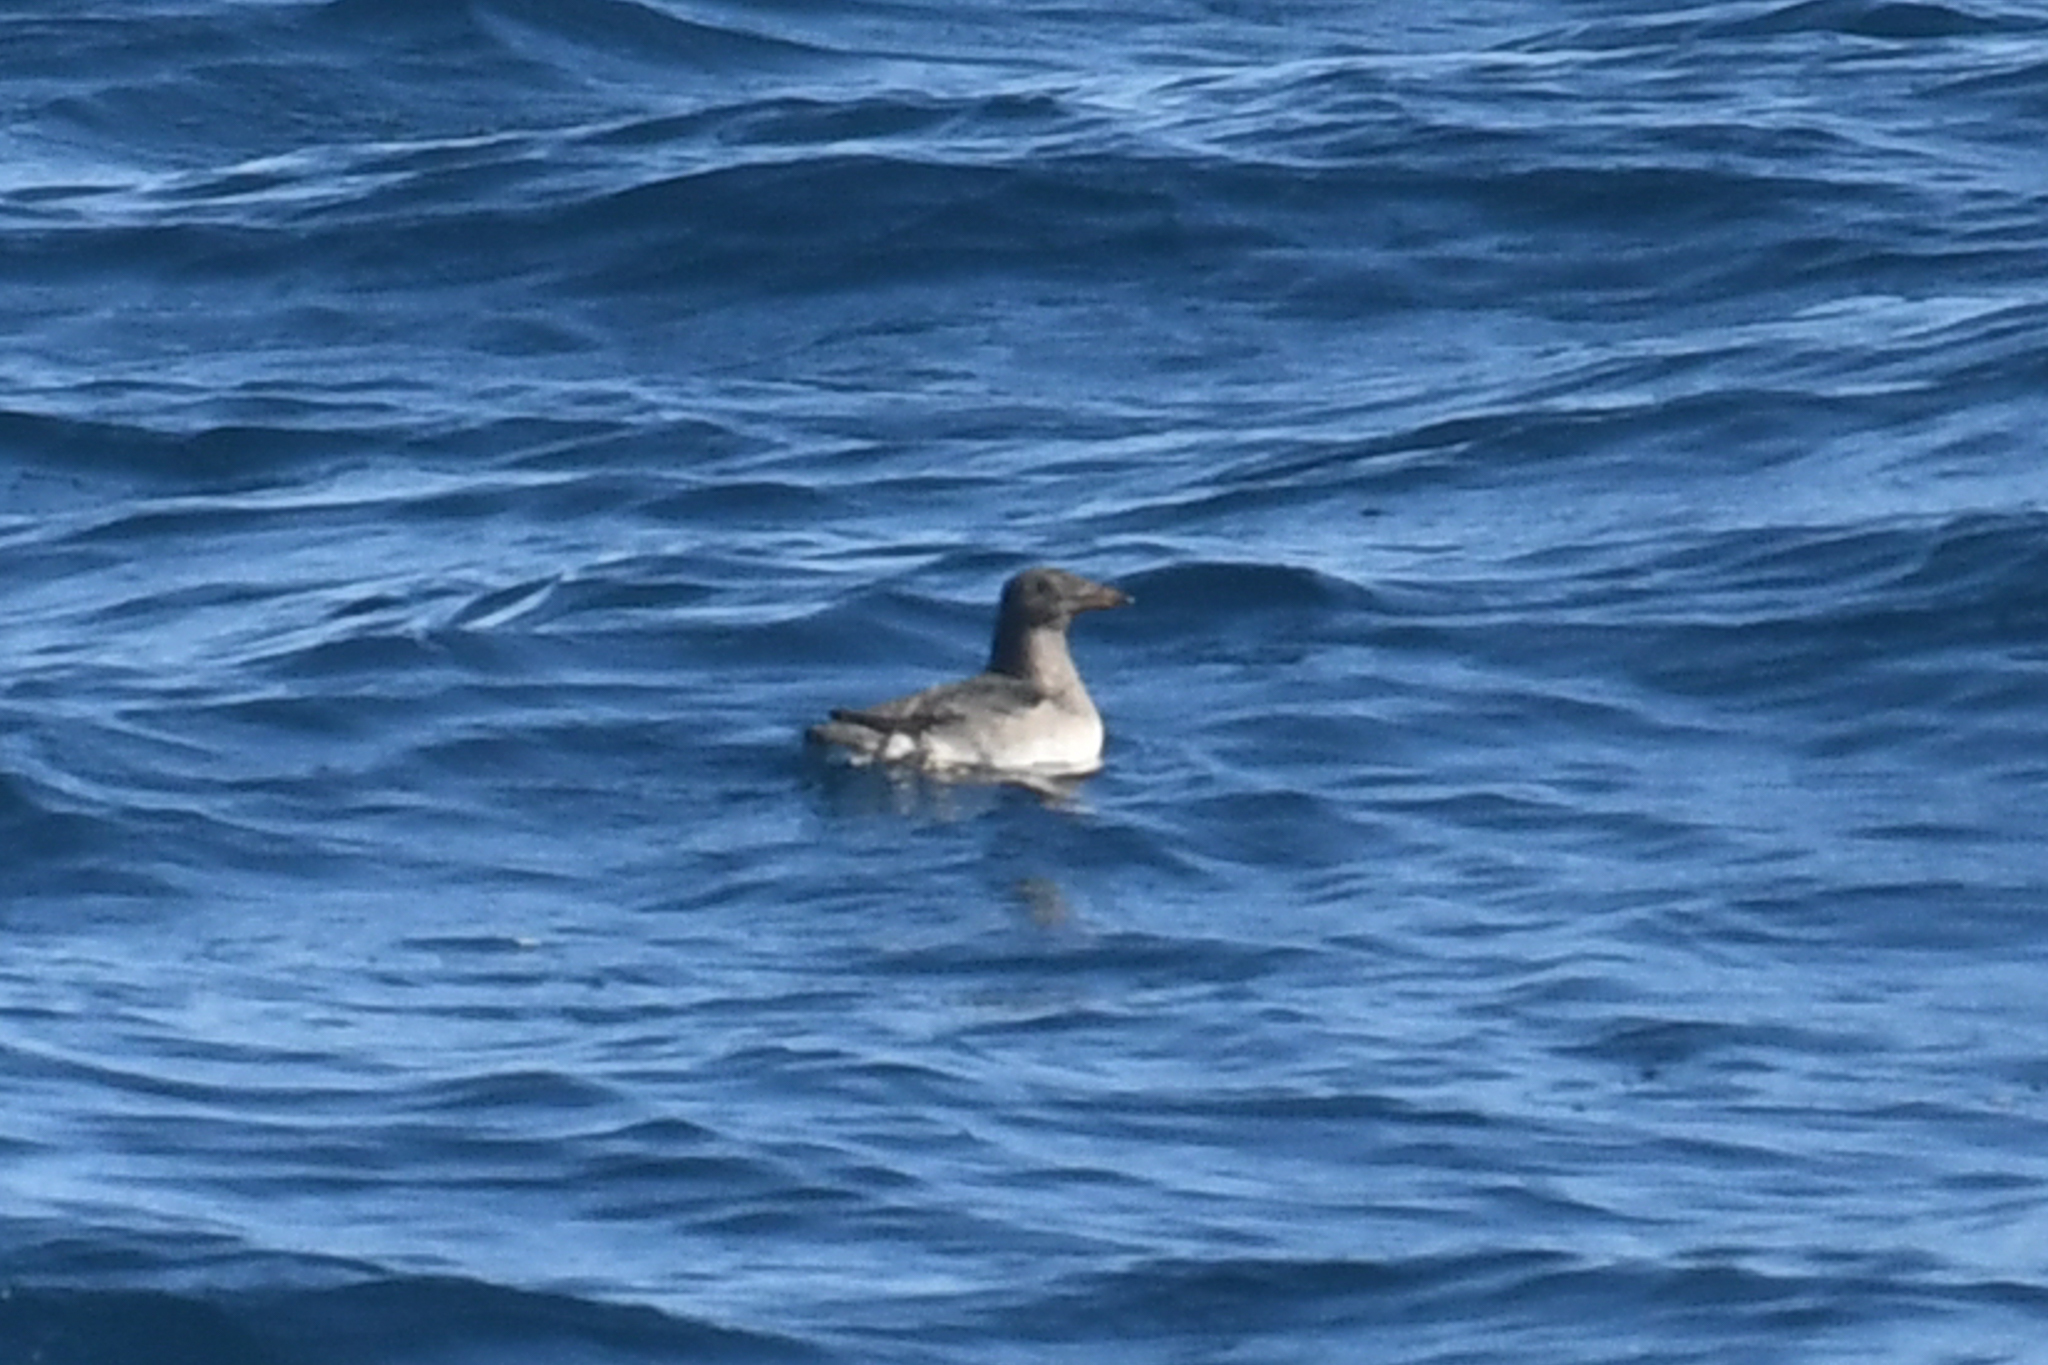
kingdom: Animalia
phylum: Chordata
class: Aves
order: Charadriiformes
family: Alcidae
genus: Cerorhinca
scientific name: Cerorhinca monocerata
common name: Rhinoceros auklet
